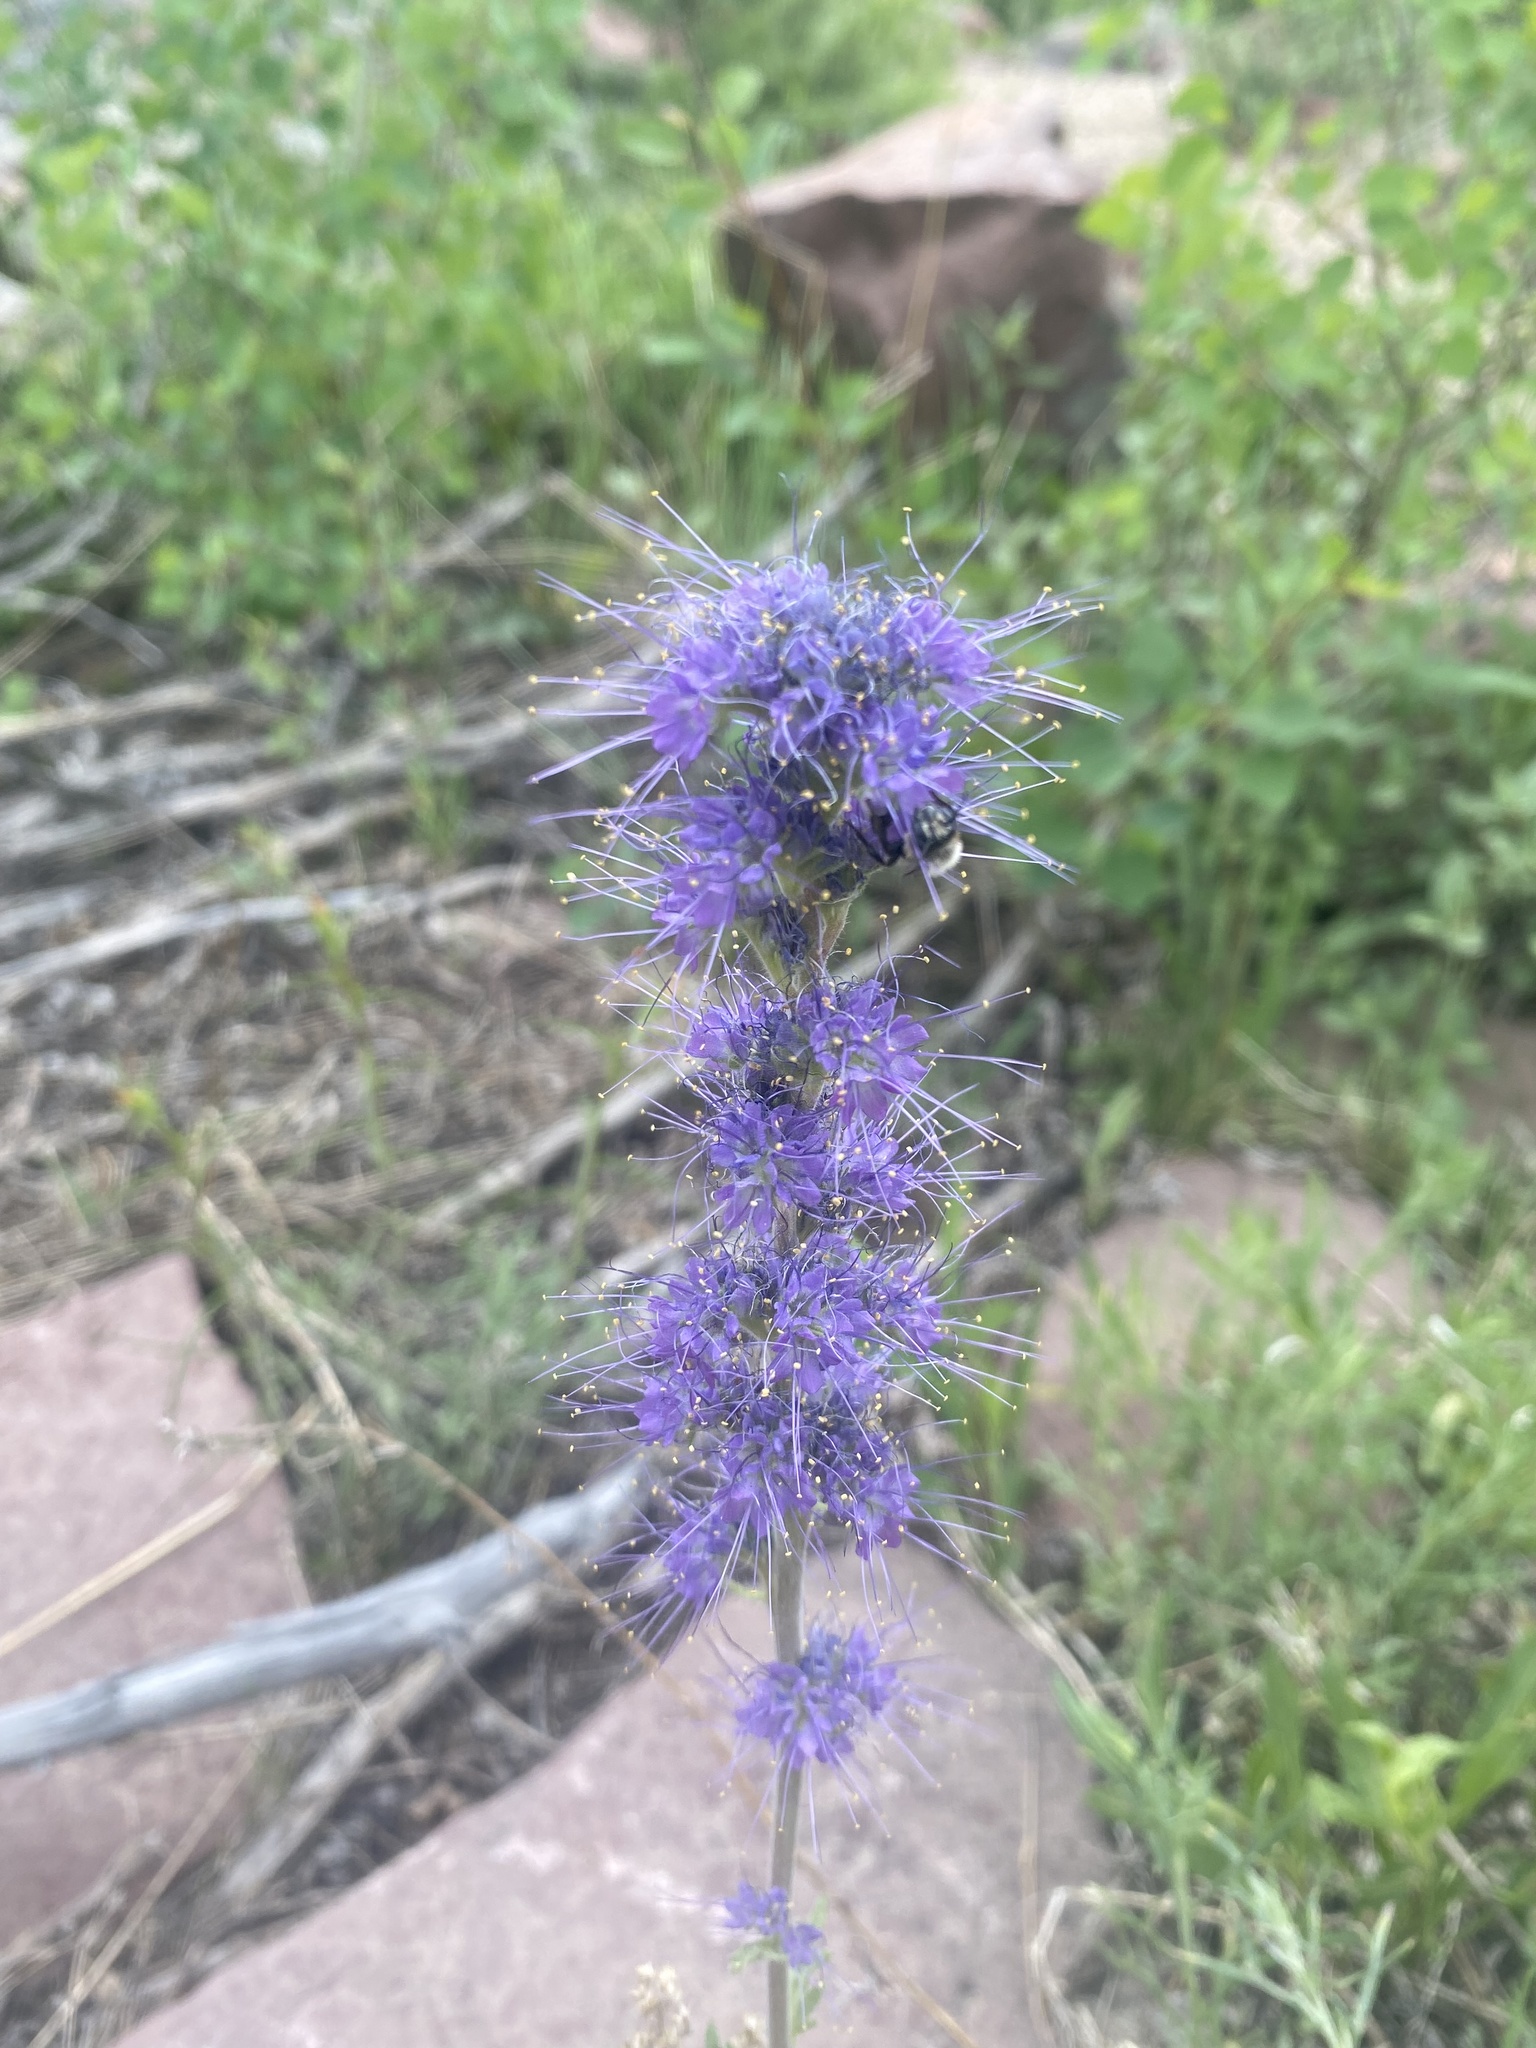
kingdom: Plantae
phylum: Tracheophyta
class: Magnoliopsida
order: Boraginales
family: Hydrophyllaceae
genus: Phacelia
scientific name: Phacelia sericea
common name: Silky phacelia
